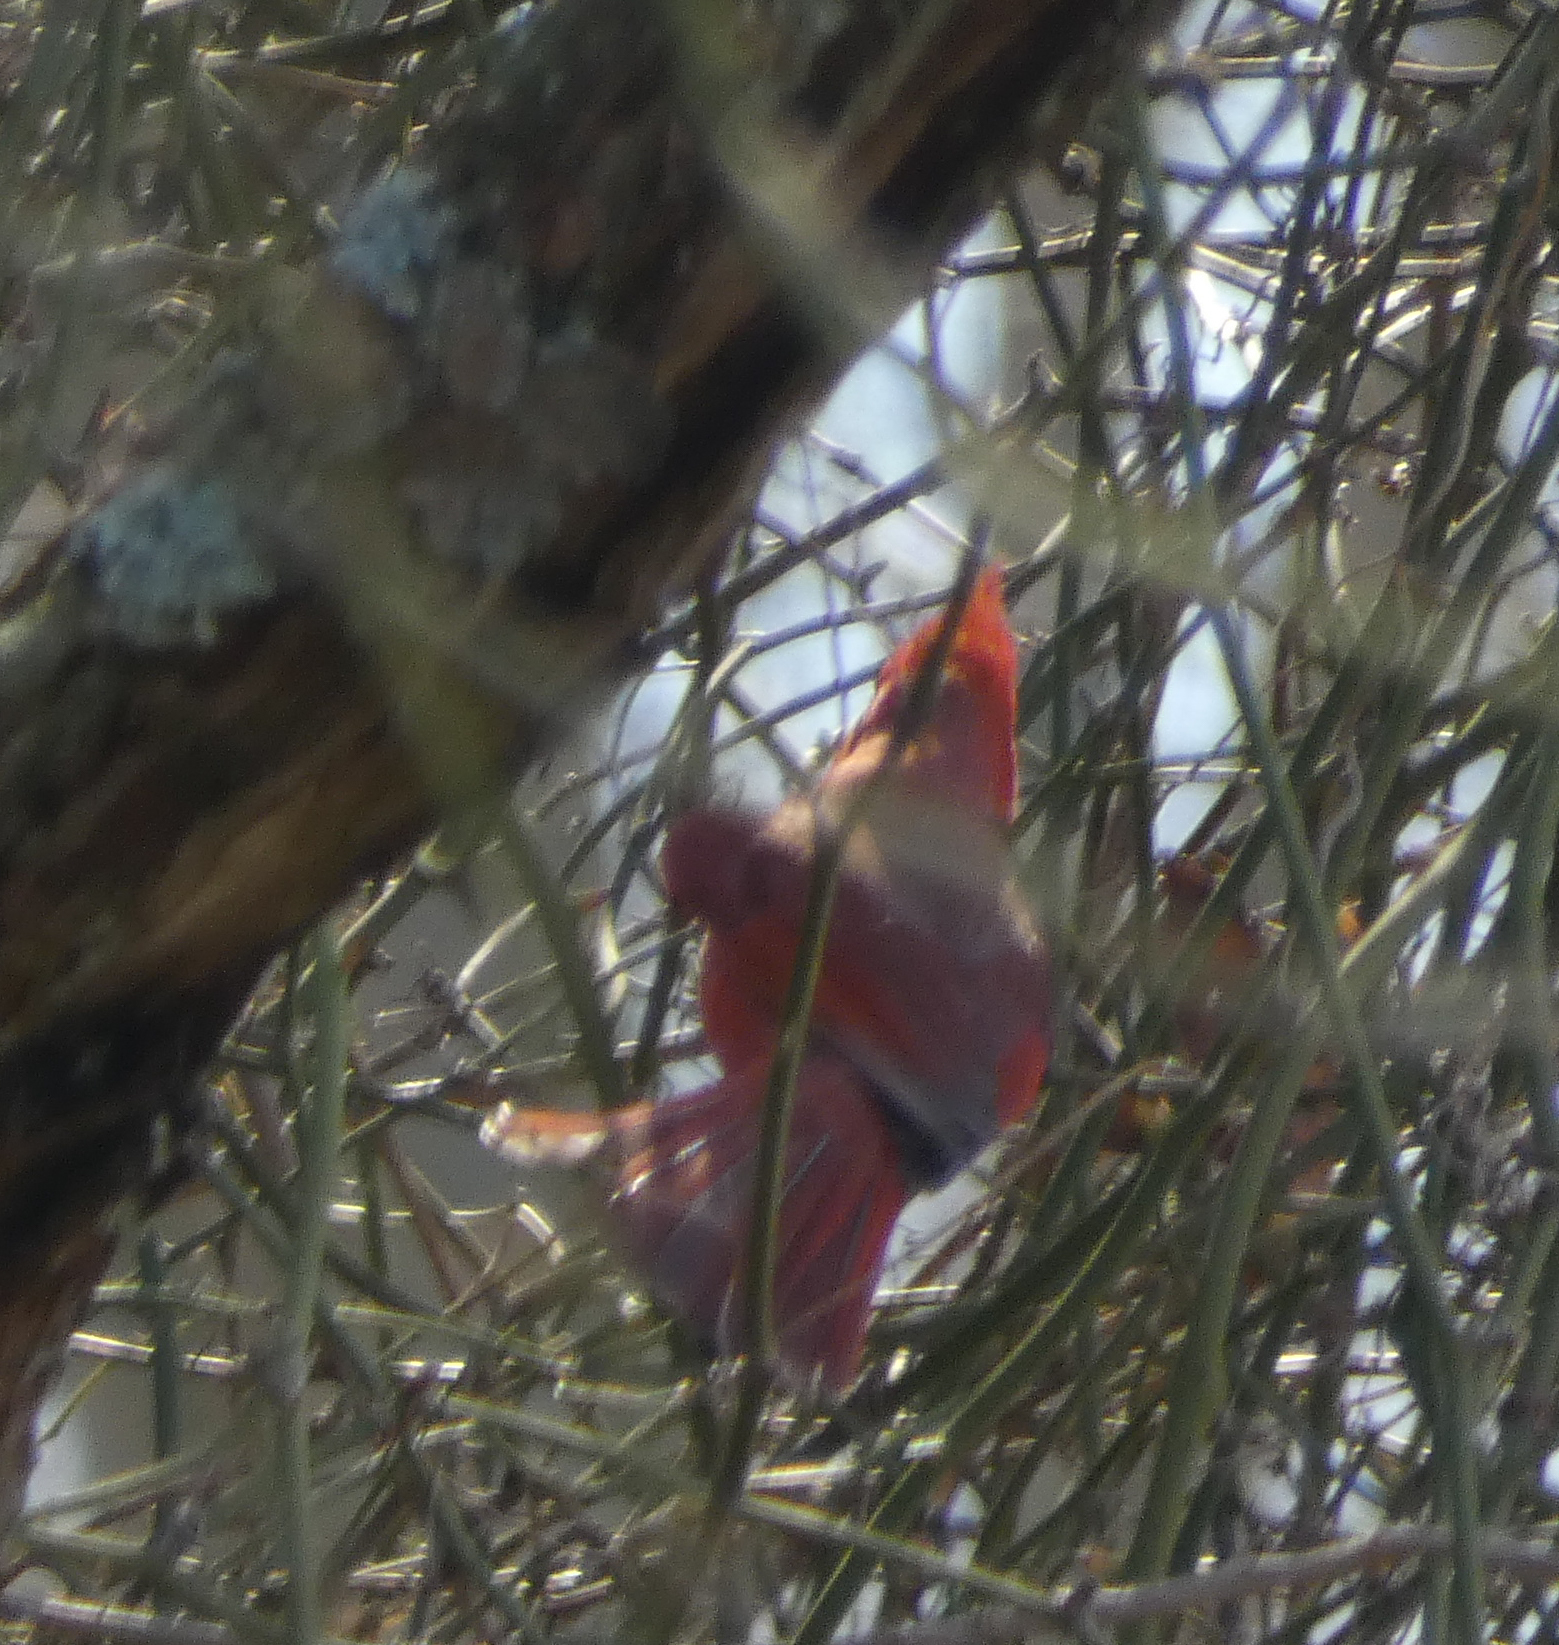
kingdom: Animalia
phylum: Chordata
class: Aves
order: Passeriformes
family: Cardinalidae
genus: Cardinalis
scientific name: Cardinalis cardinalis
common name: Northern cardinal
